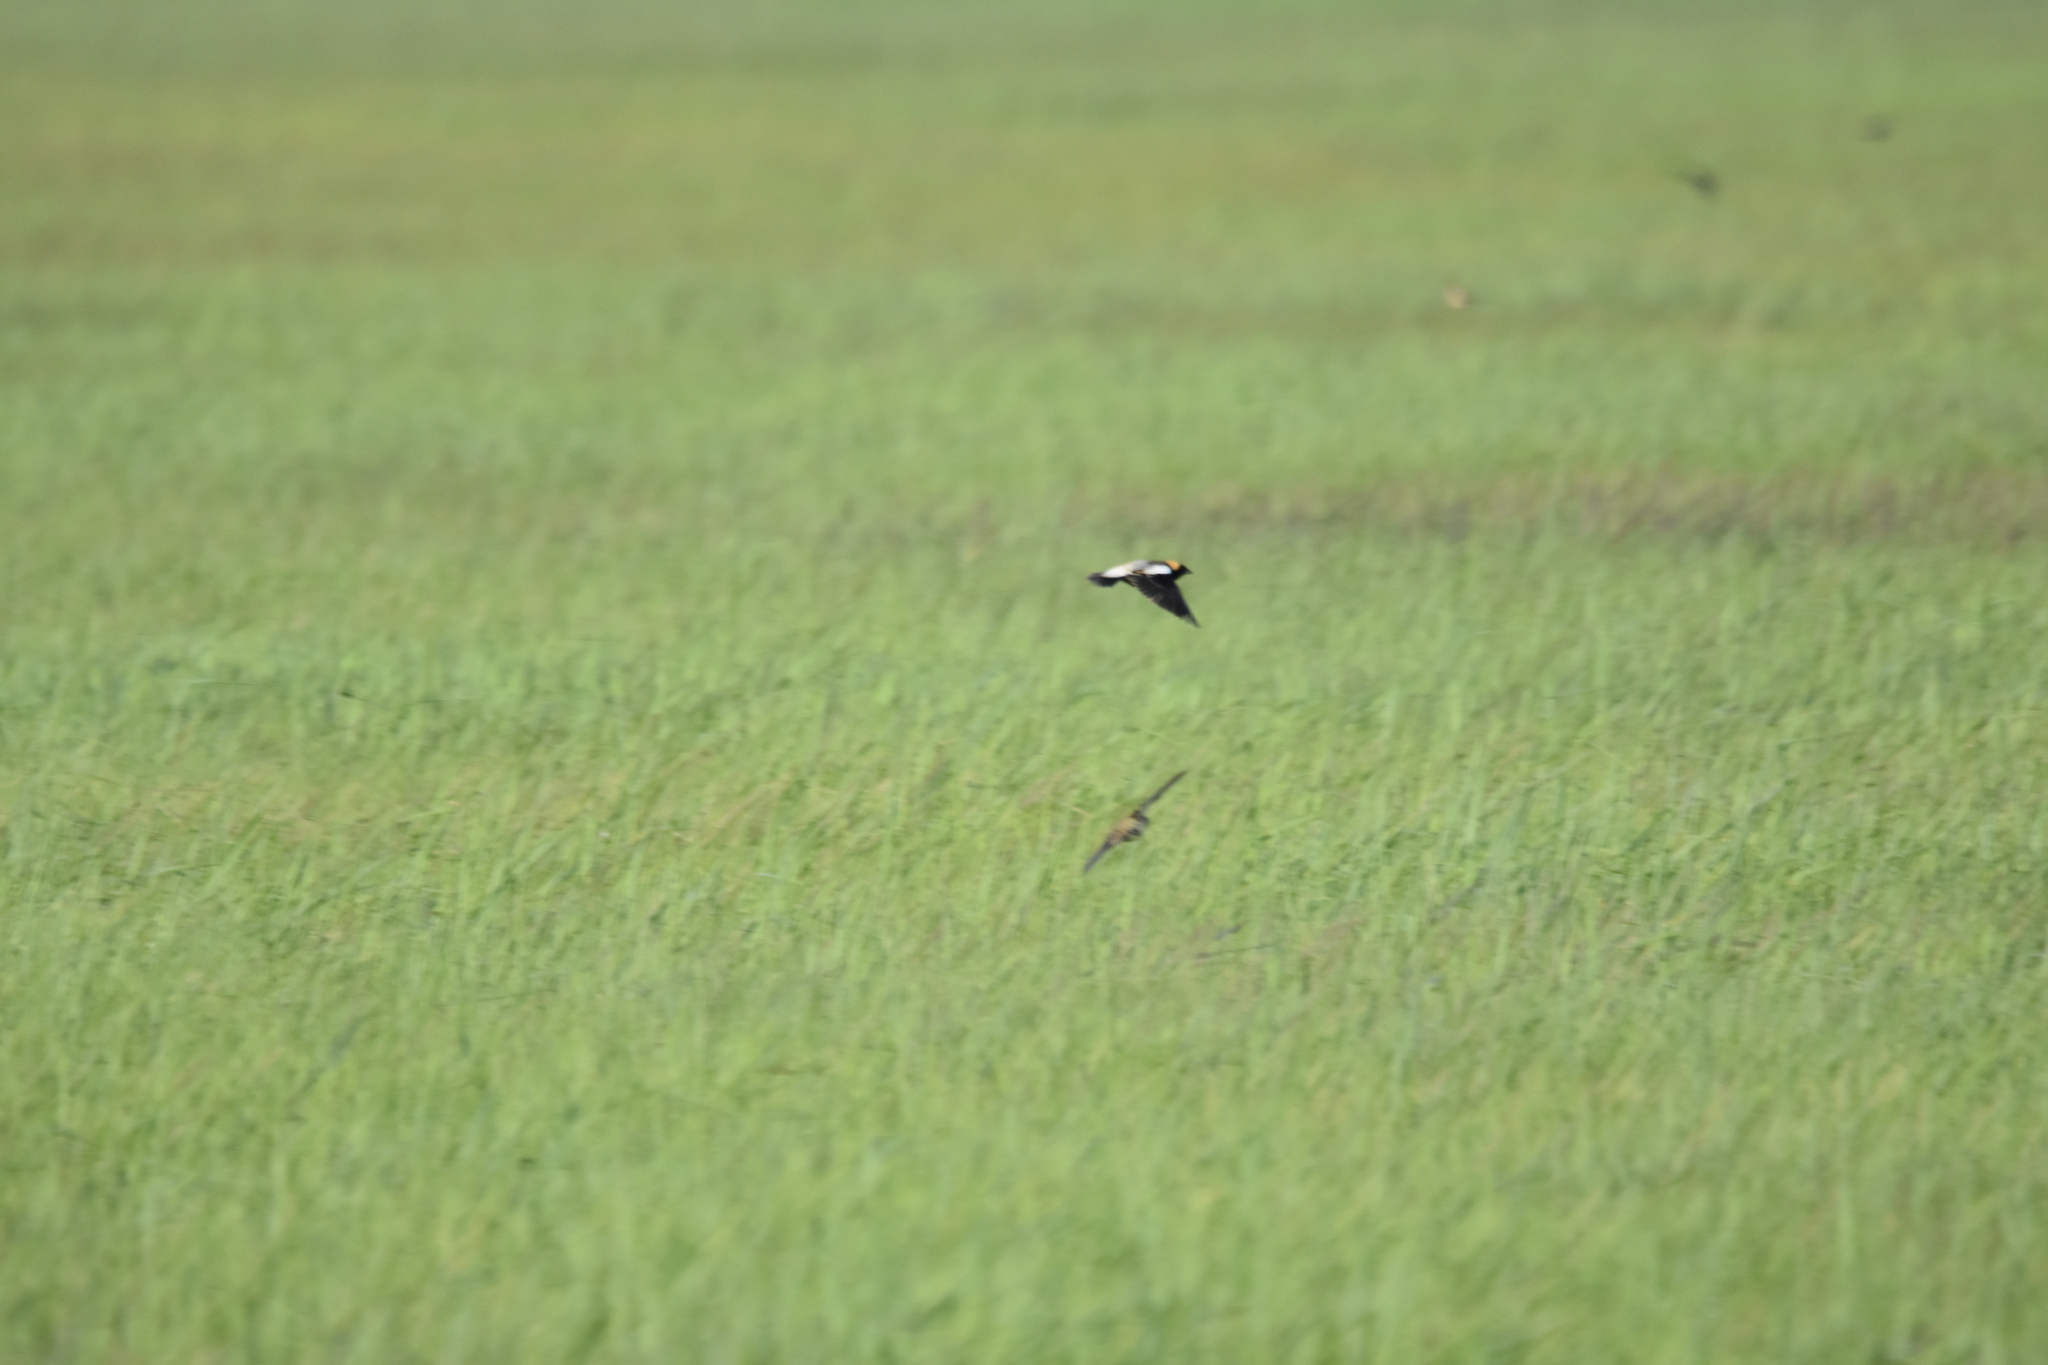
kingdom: Animalia
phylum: Chordata
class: Aves
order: Passeriformes
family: Icteridae
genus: Dolichonyx
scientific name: Dolichonyx oryzivorus
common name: Bobolink
